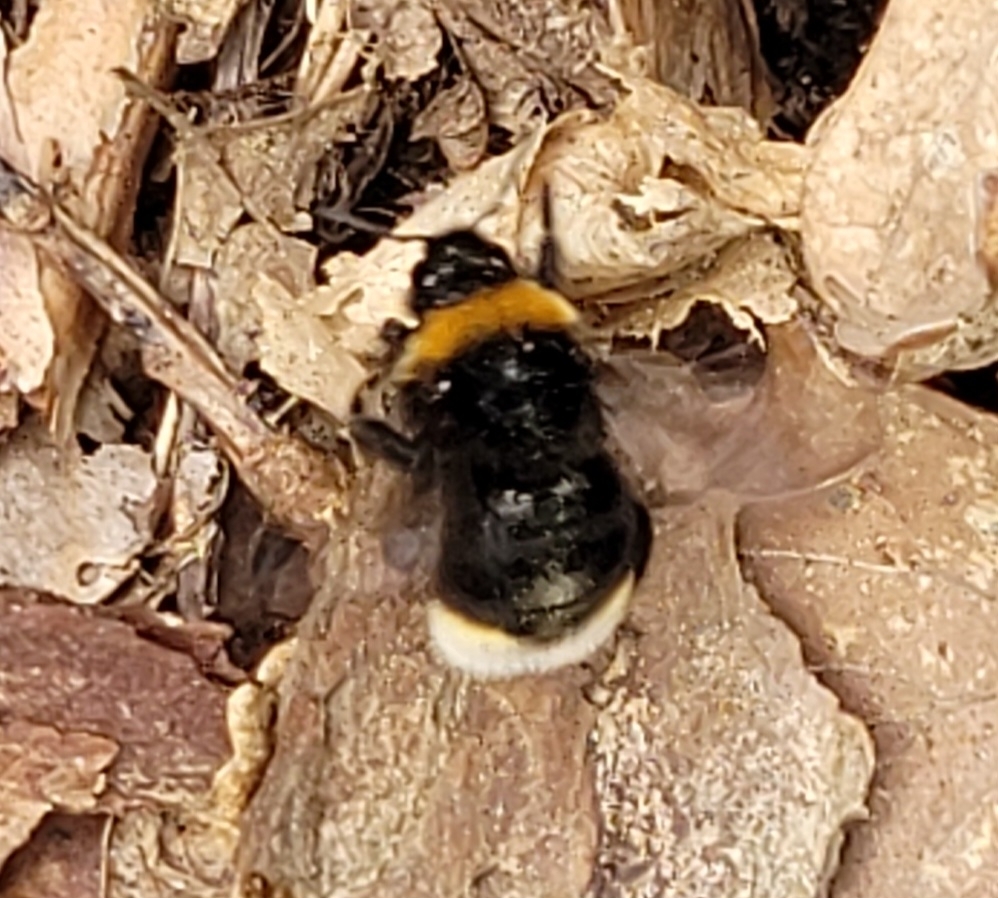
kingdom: Animalia
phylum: Arthropoda
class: Insecta
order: Hymenoptera
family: Apidae
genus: Bombus
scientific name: Bombus vestalis
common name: Vestal cuckoo bee
